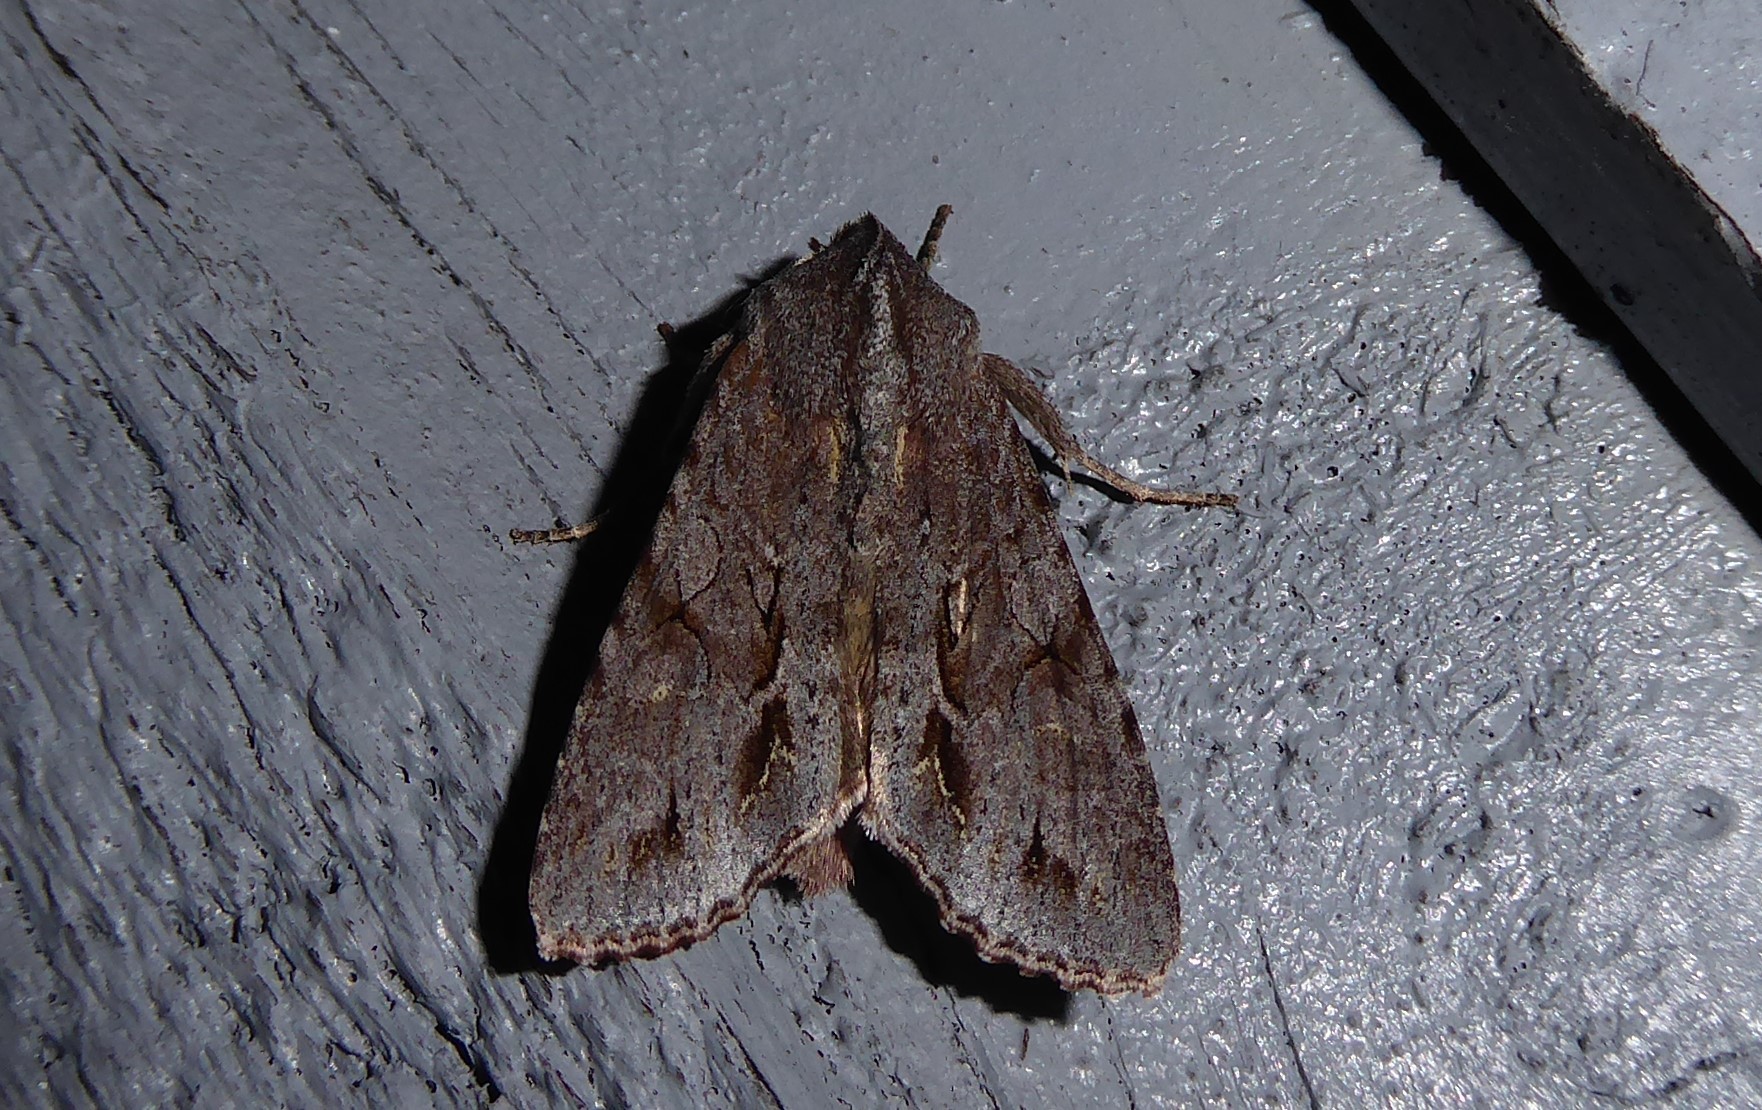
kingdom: Animalia
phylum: Arthropoda
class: Insecta
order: Lepidoptera
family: Noctuidae
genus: Ichneutica
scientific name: Ichneutica
